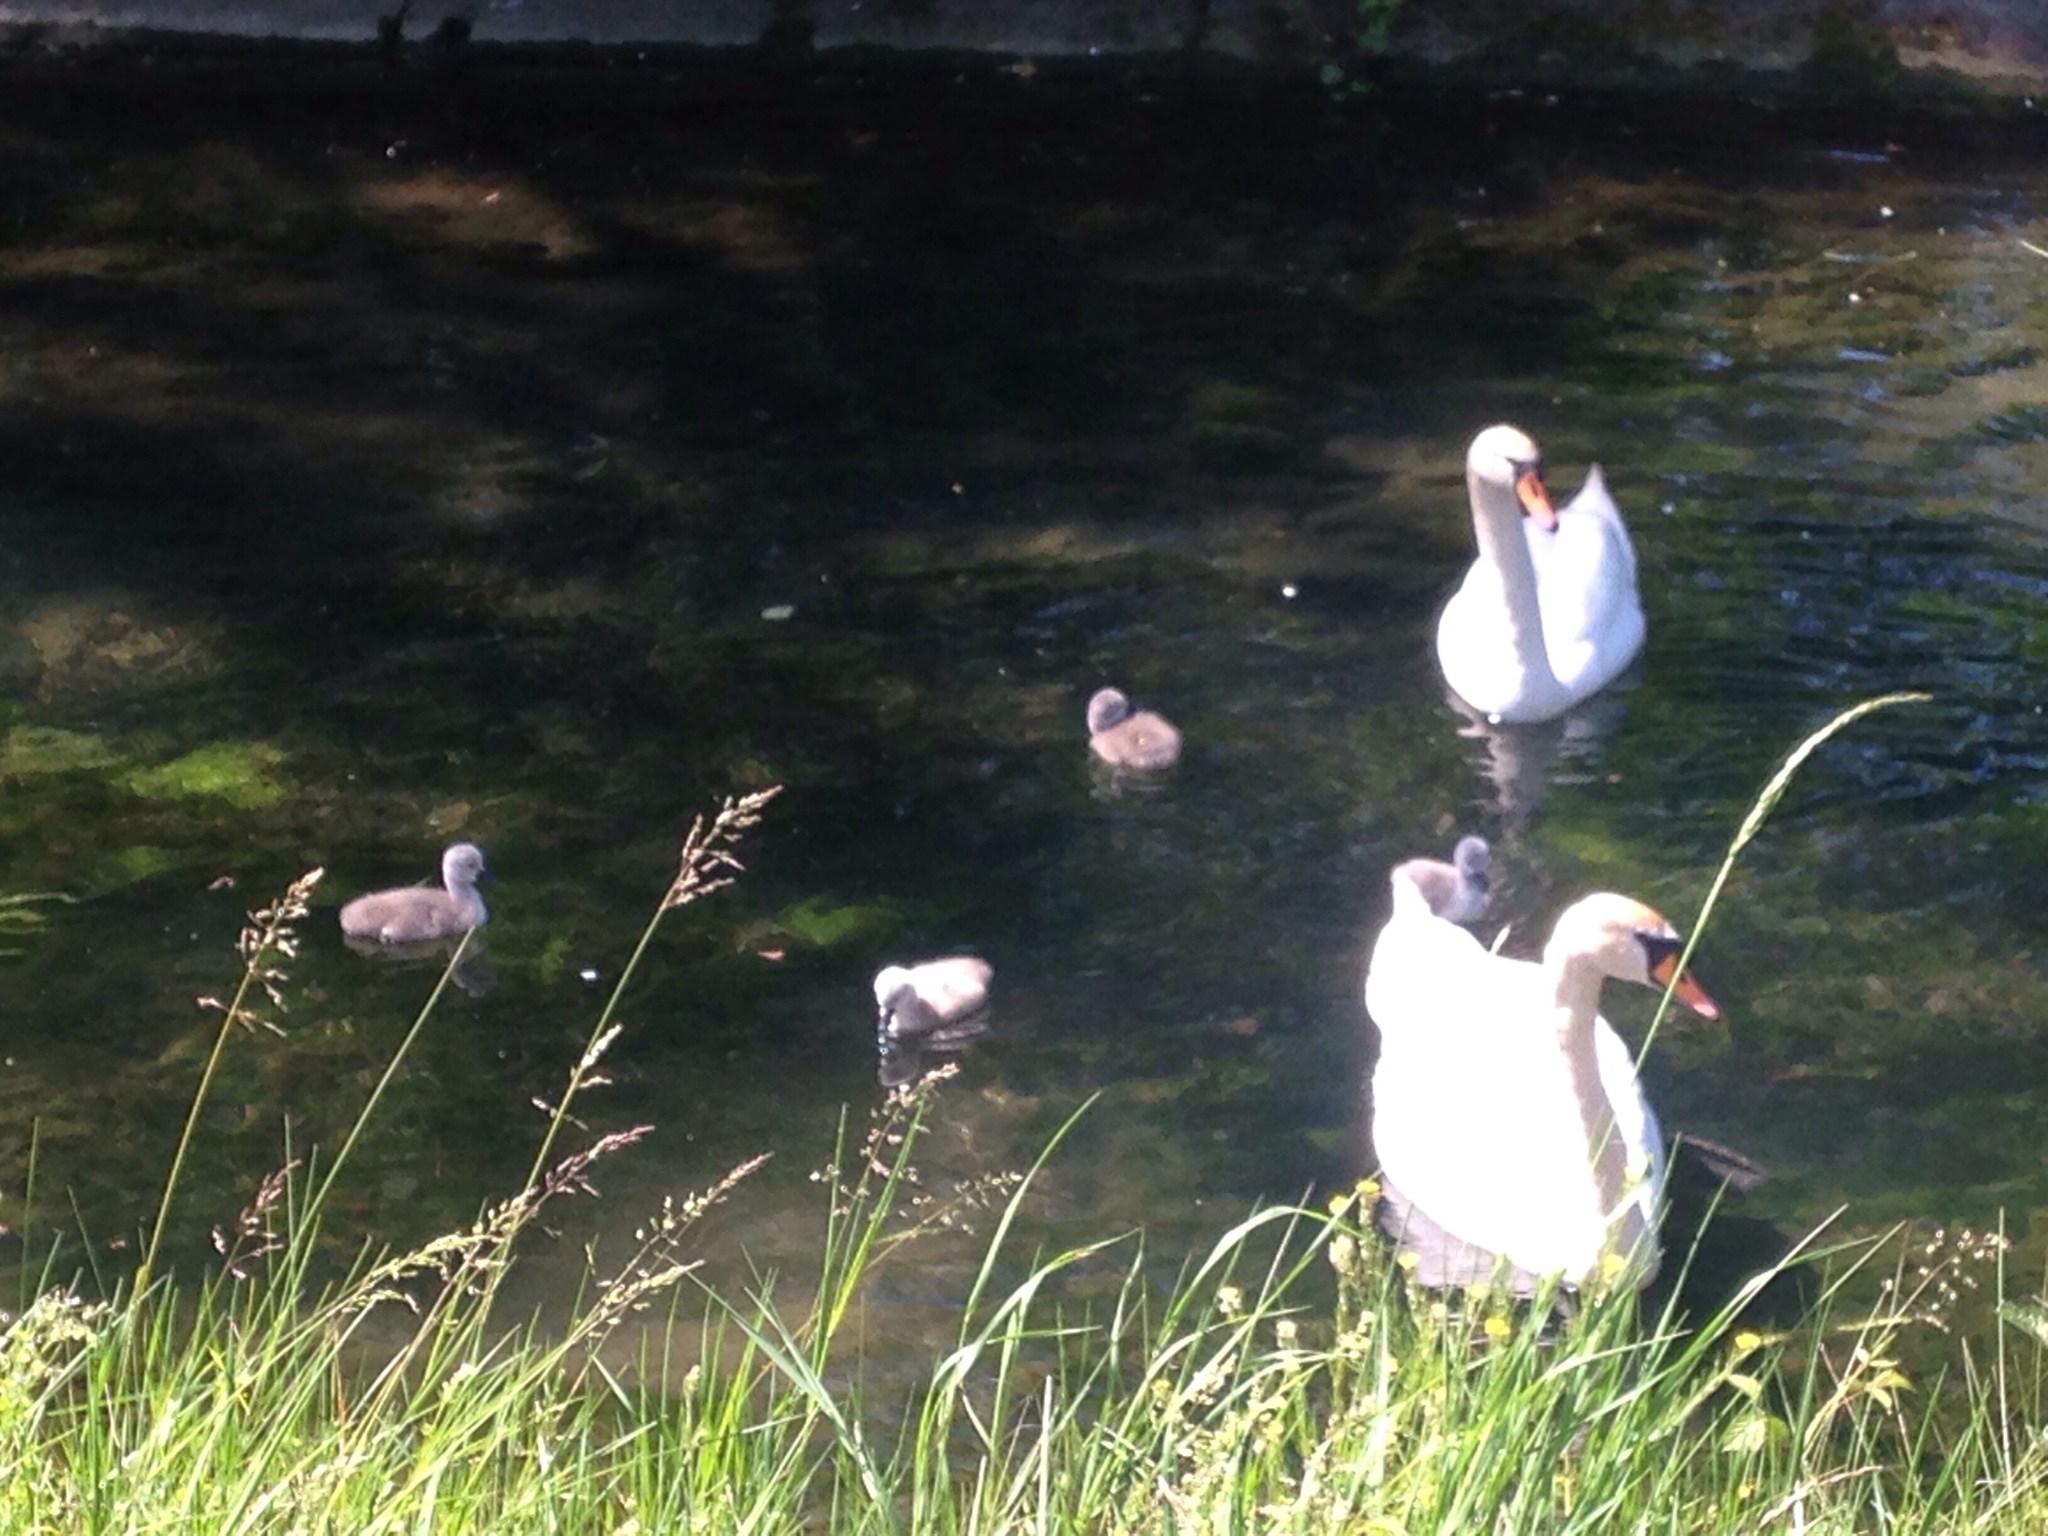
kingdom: Animalia
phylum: Chordata
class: Aves
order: Anseriformes
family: Anatidae
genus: Cygnus
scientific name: Cygnus olor
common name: Mute swan
